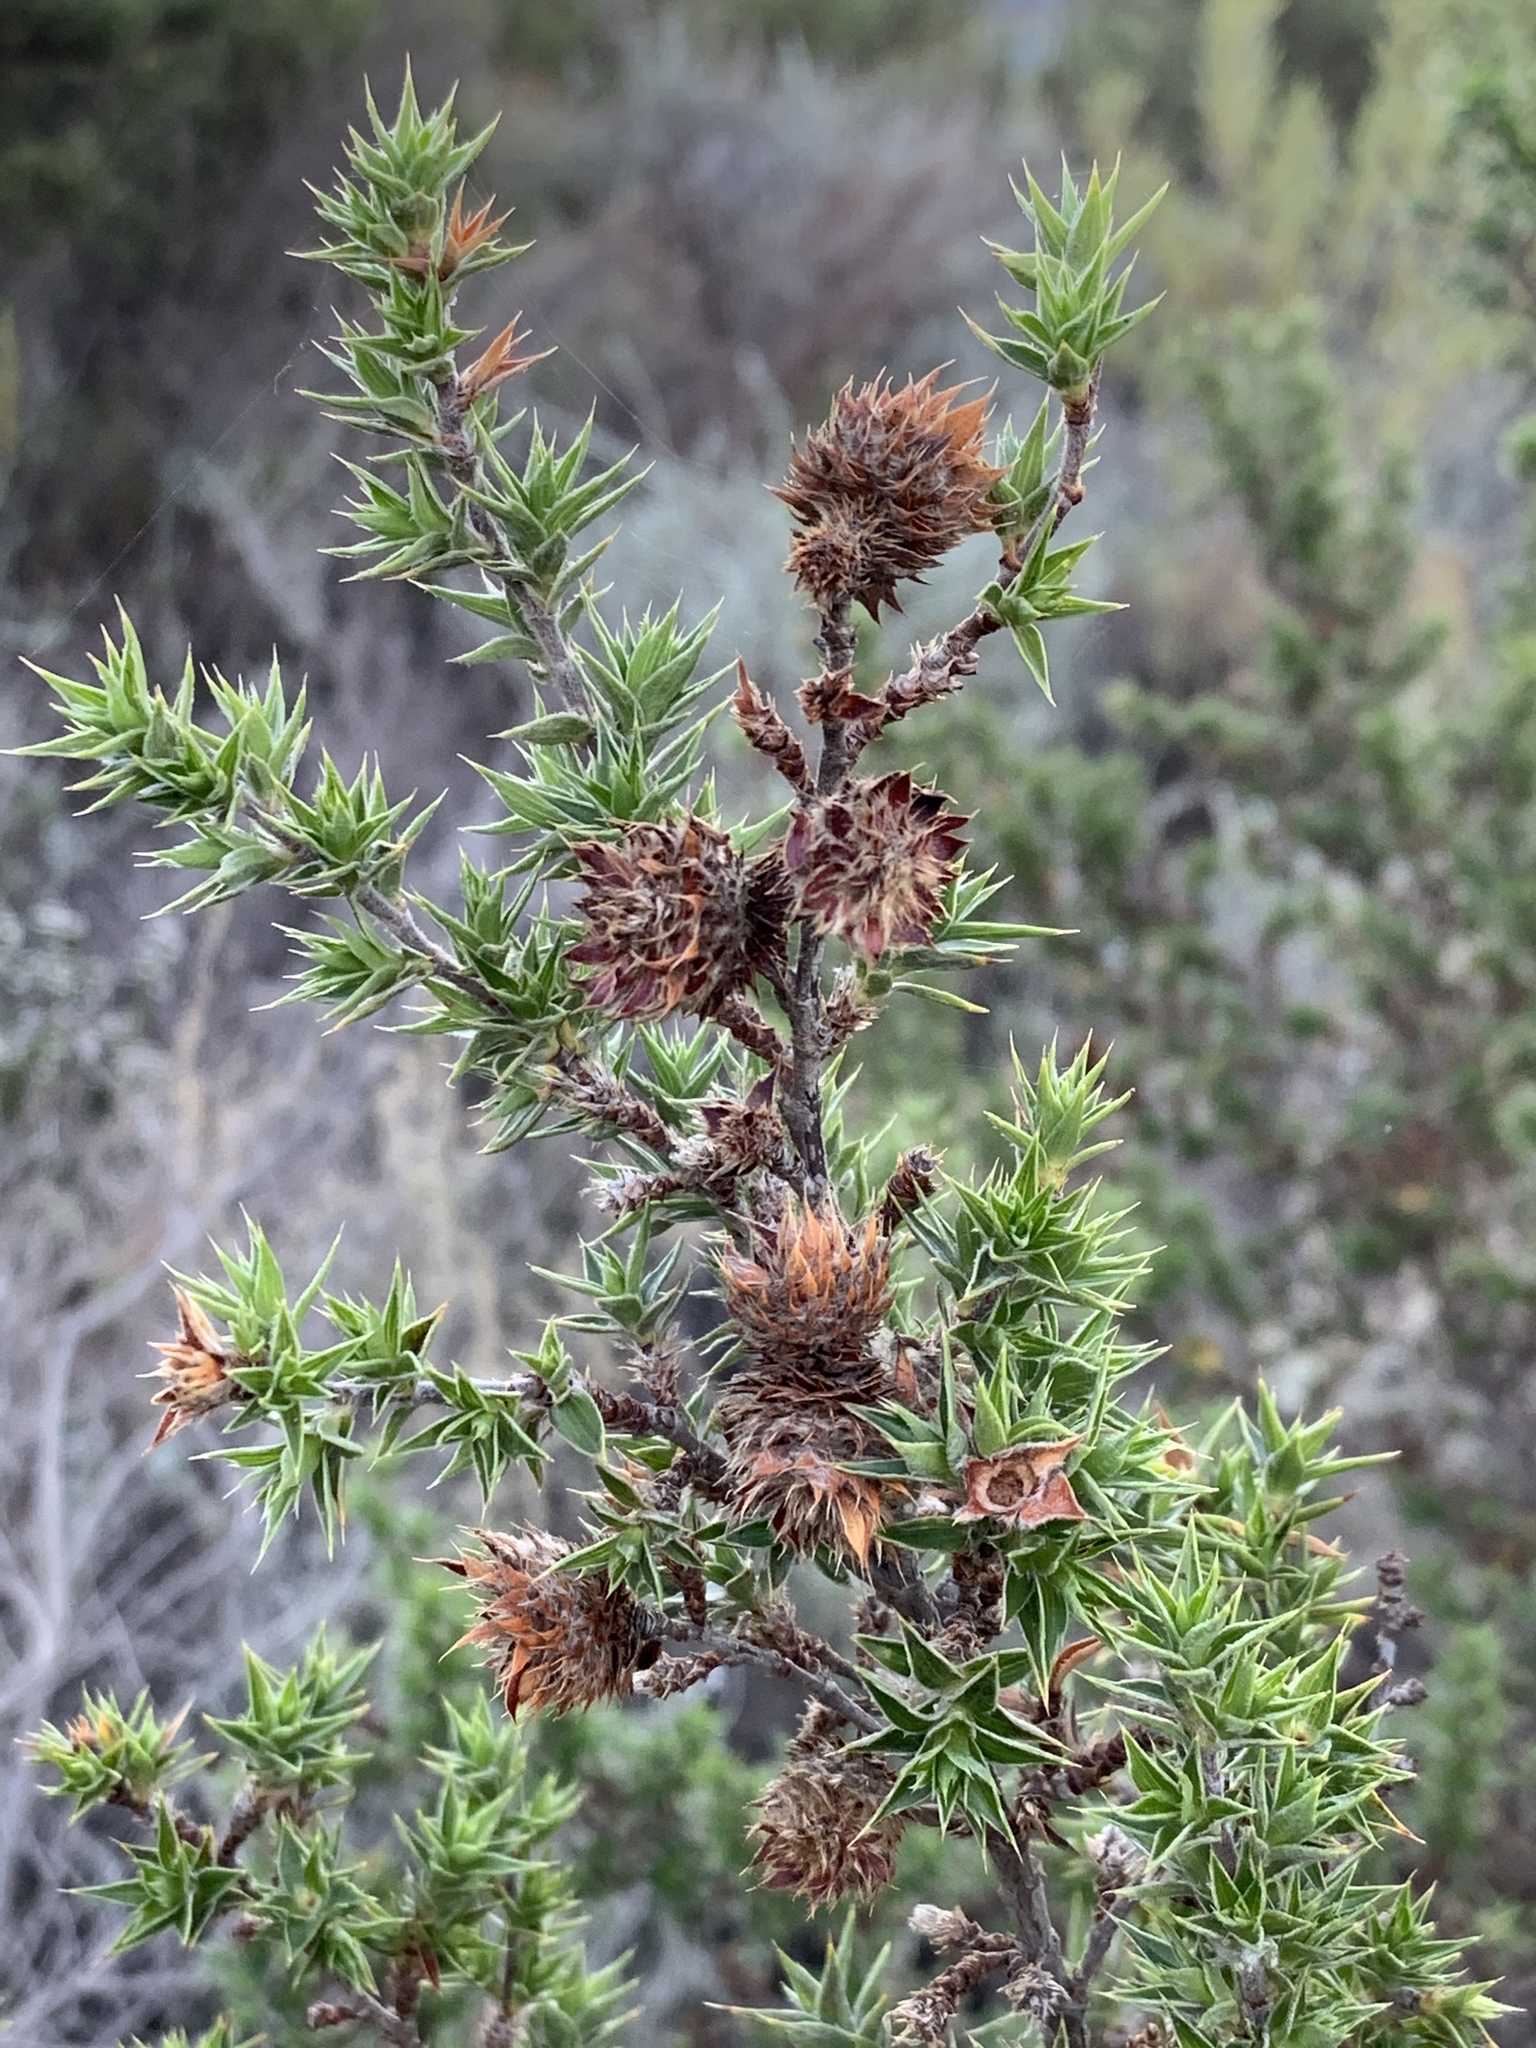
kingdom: Plantae
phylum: Tracheophyta
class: Magnoliopsida
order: Rosales
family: Rosaceae
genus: Cliffortia
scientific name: Cliffortia ruscifolia
